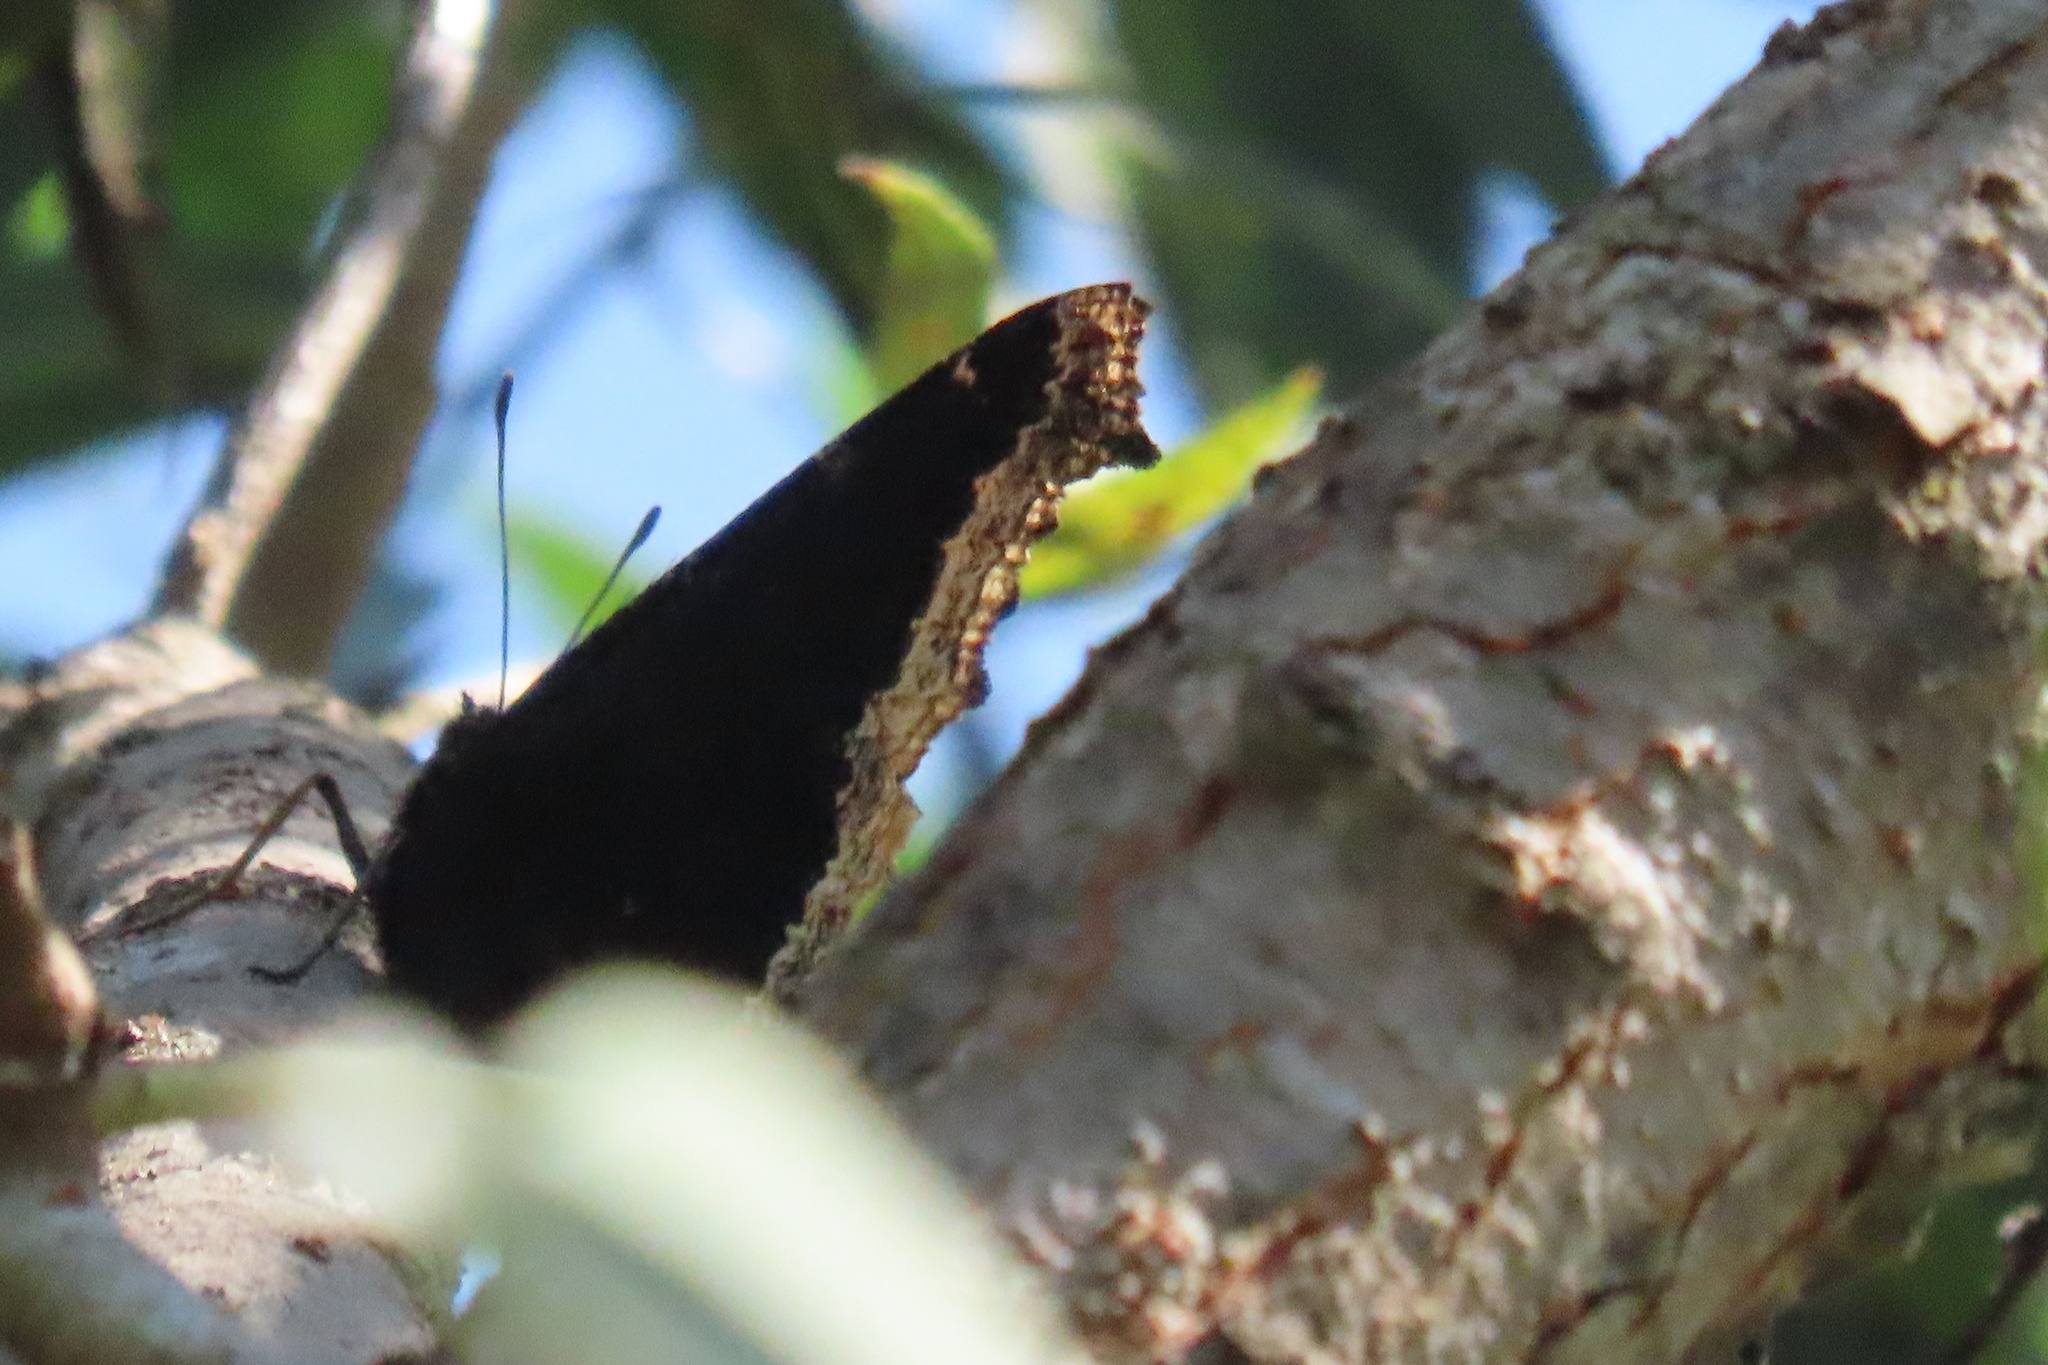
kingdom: Animalia
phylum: Arthropoda
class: Insecta
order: Lepidoptera
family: Nymphalidae
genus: Nymphalis
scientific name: Nymphalis antiopa
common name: Camberwell beauty
